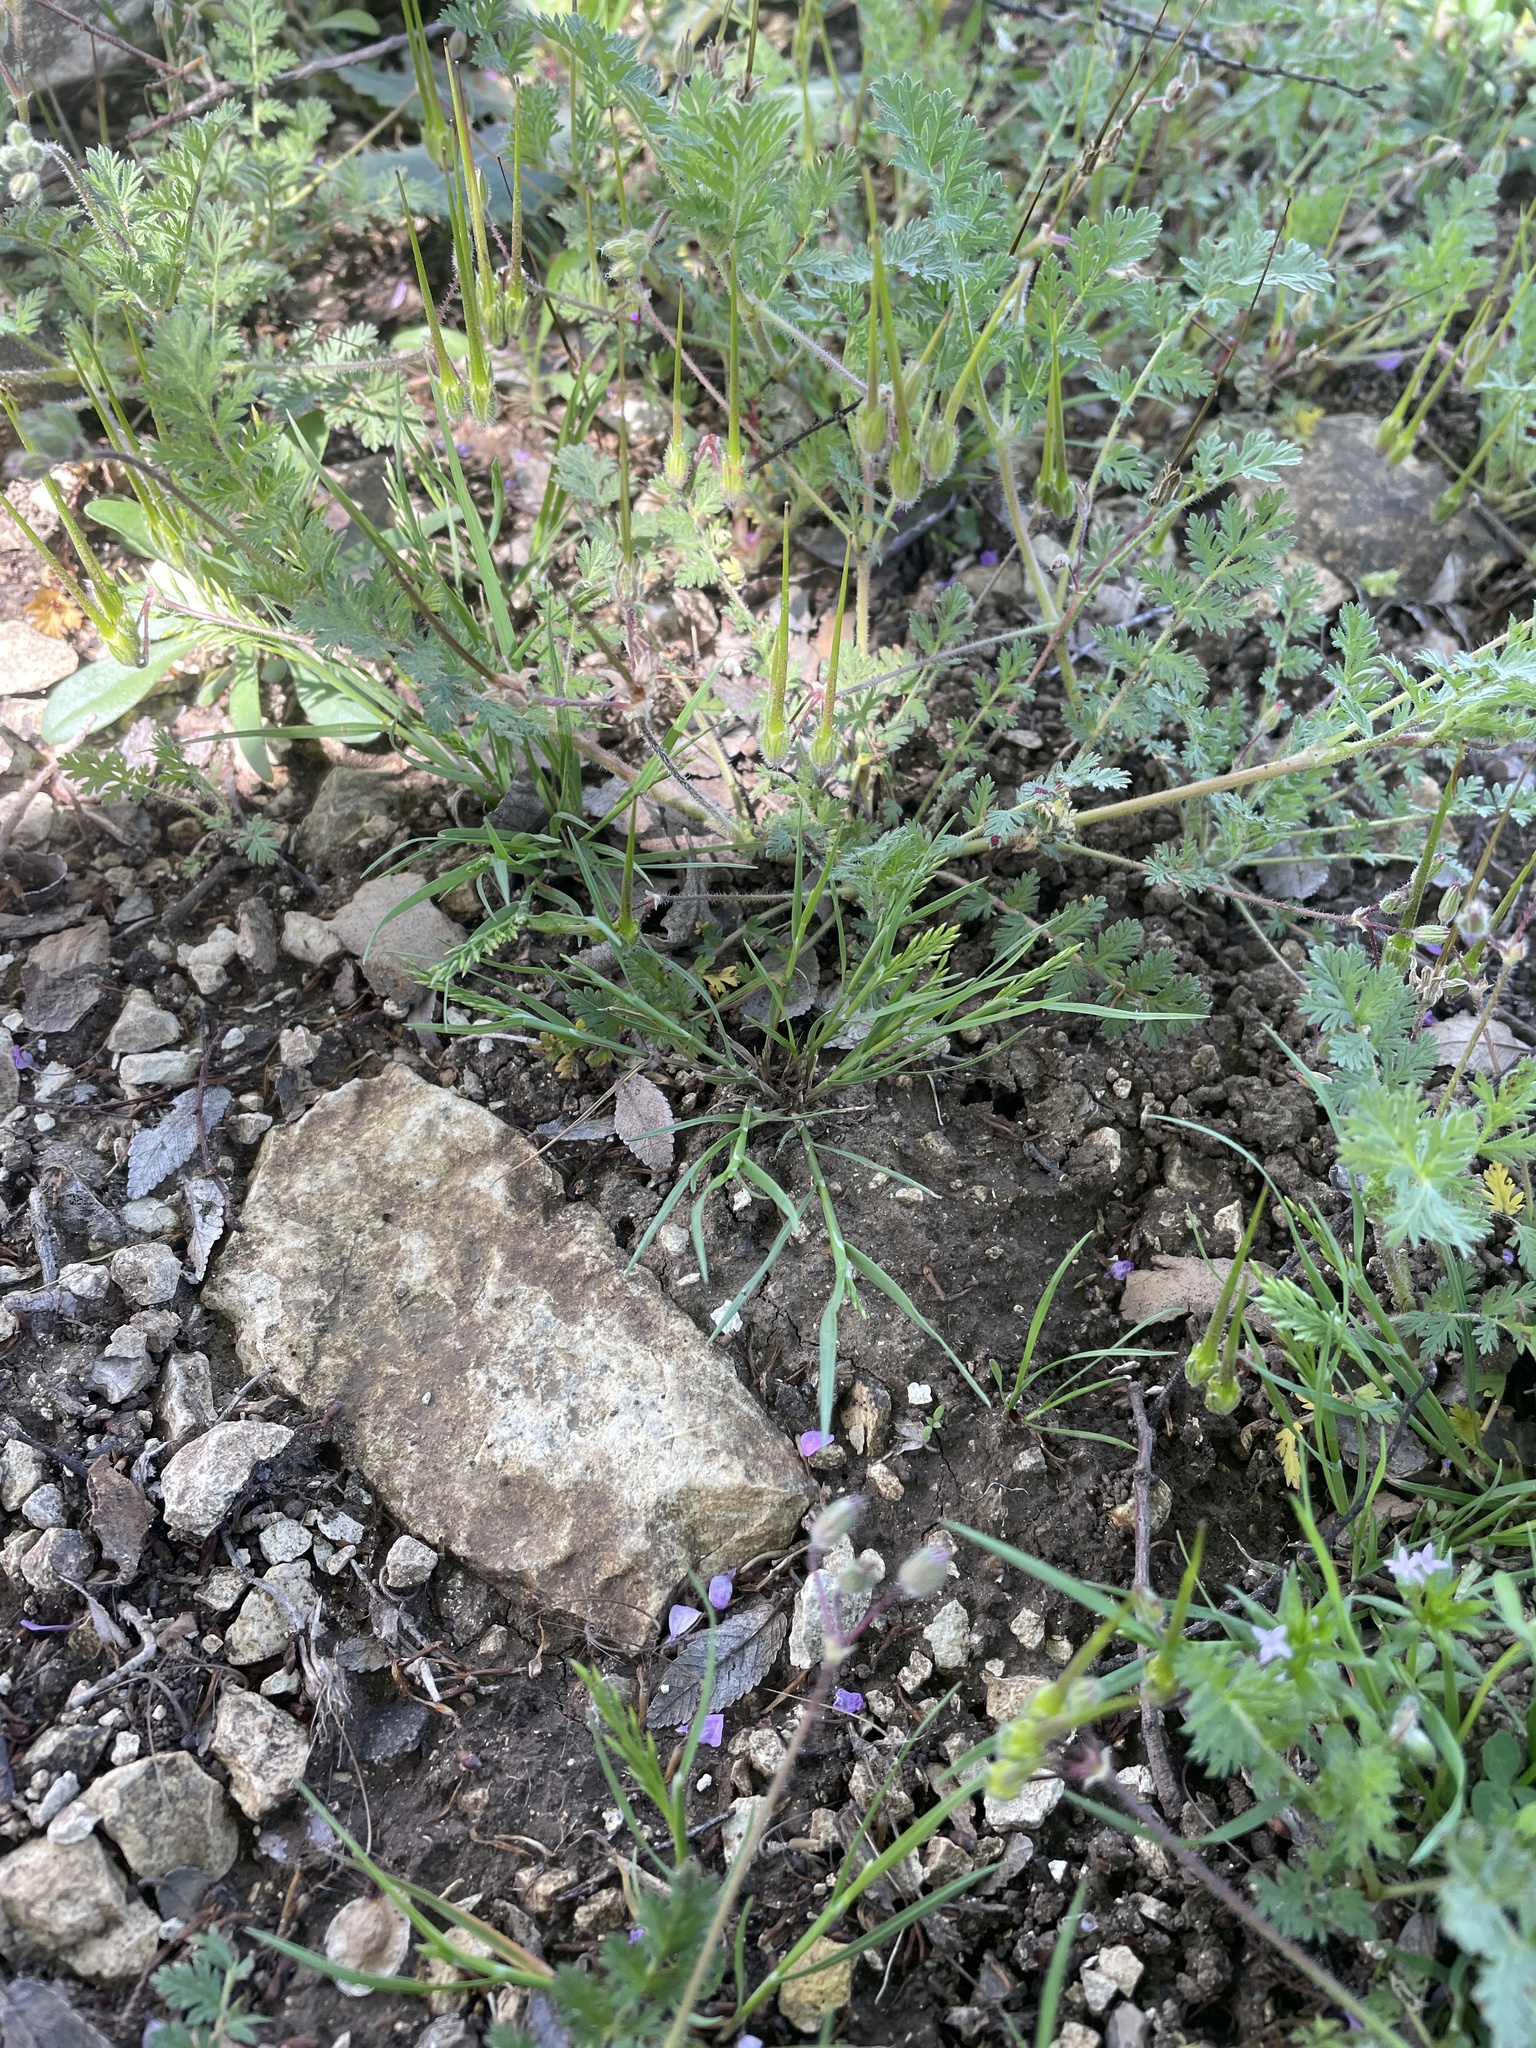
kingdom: Plantae
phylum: Tracheophyta
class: Liliopsida
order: Poales
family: Poaceae
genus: Catapodium
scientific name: Catapodium rigidum
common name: Fern-grass
